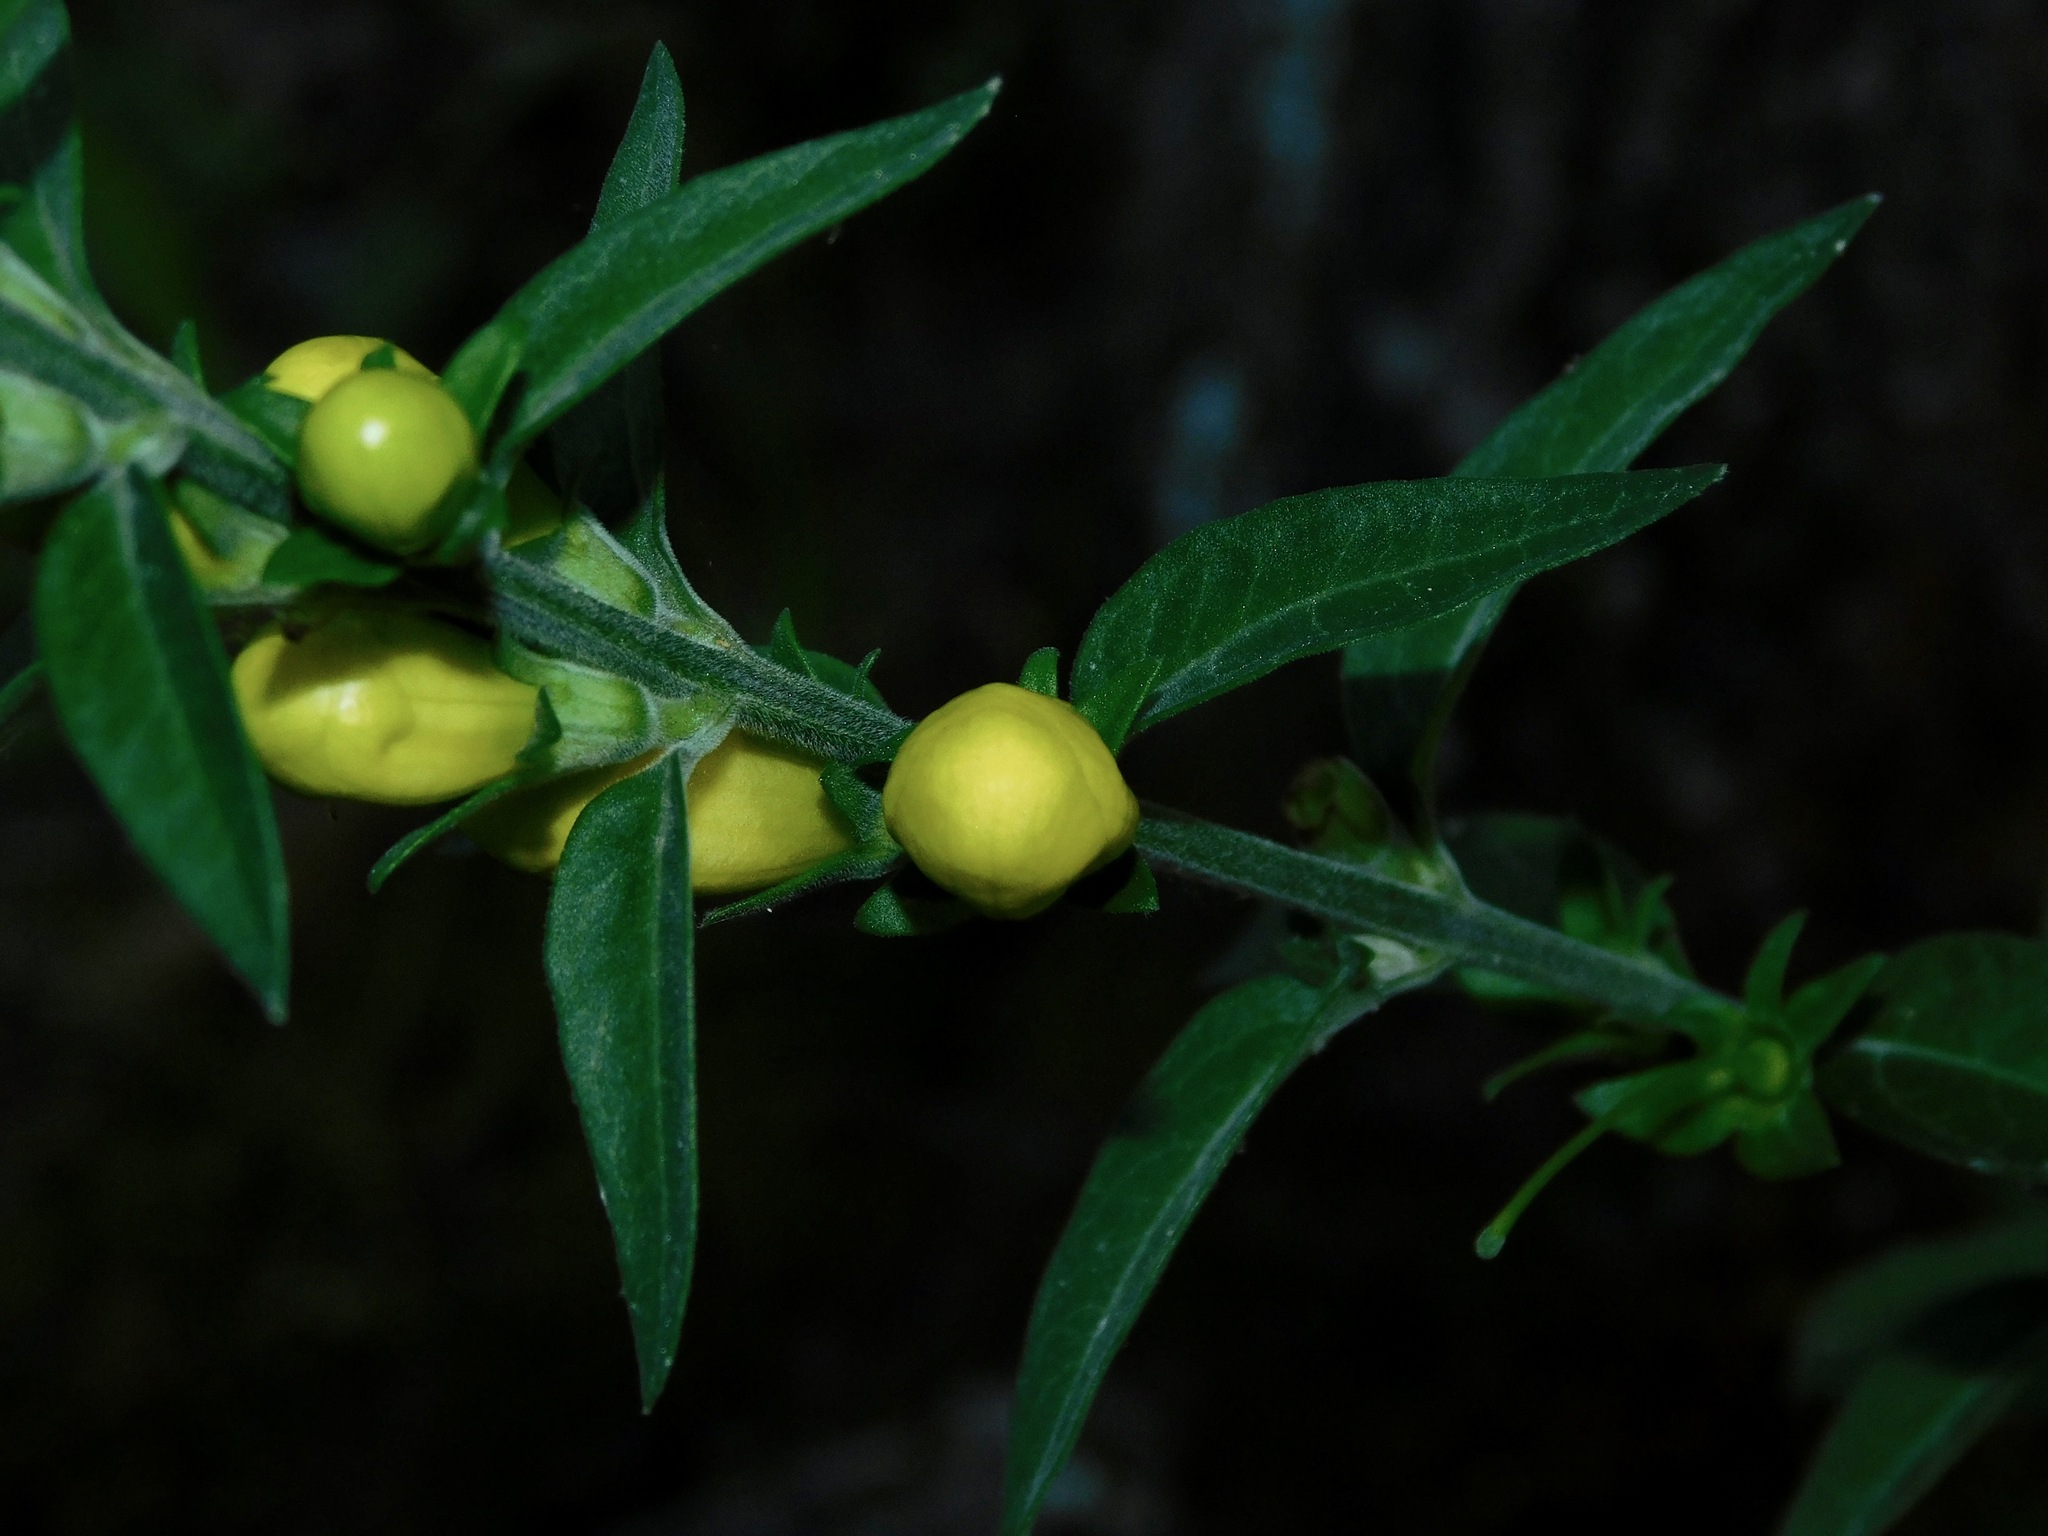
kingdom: Plantae
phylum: Tracheophyta
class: Magnoliopsida
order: Lamiales
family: Orobanchaceae
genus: Aureolaria
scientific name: Aureolaria virginica
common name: Downy false foxglove
